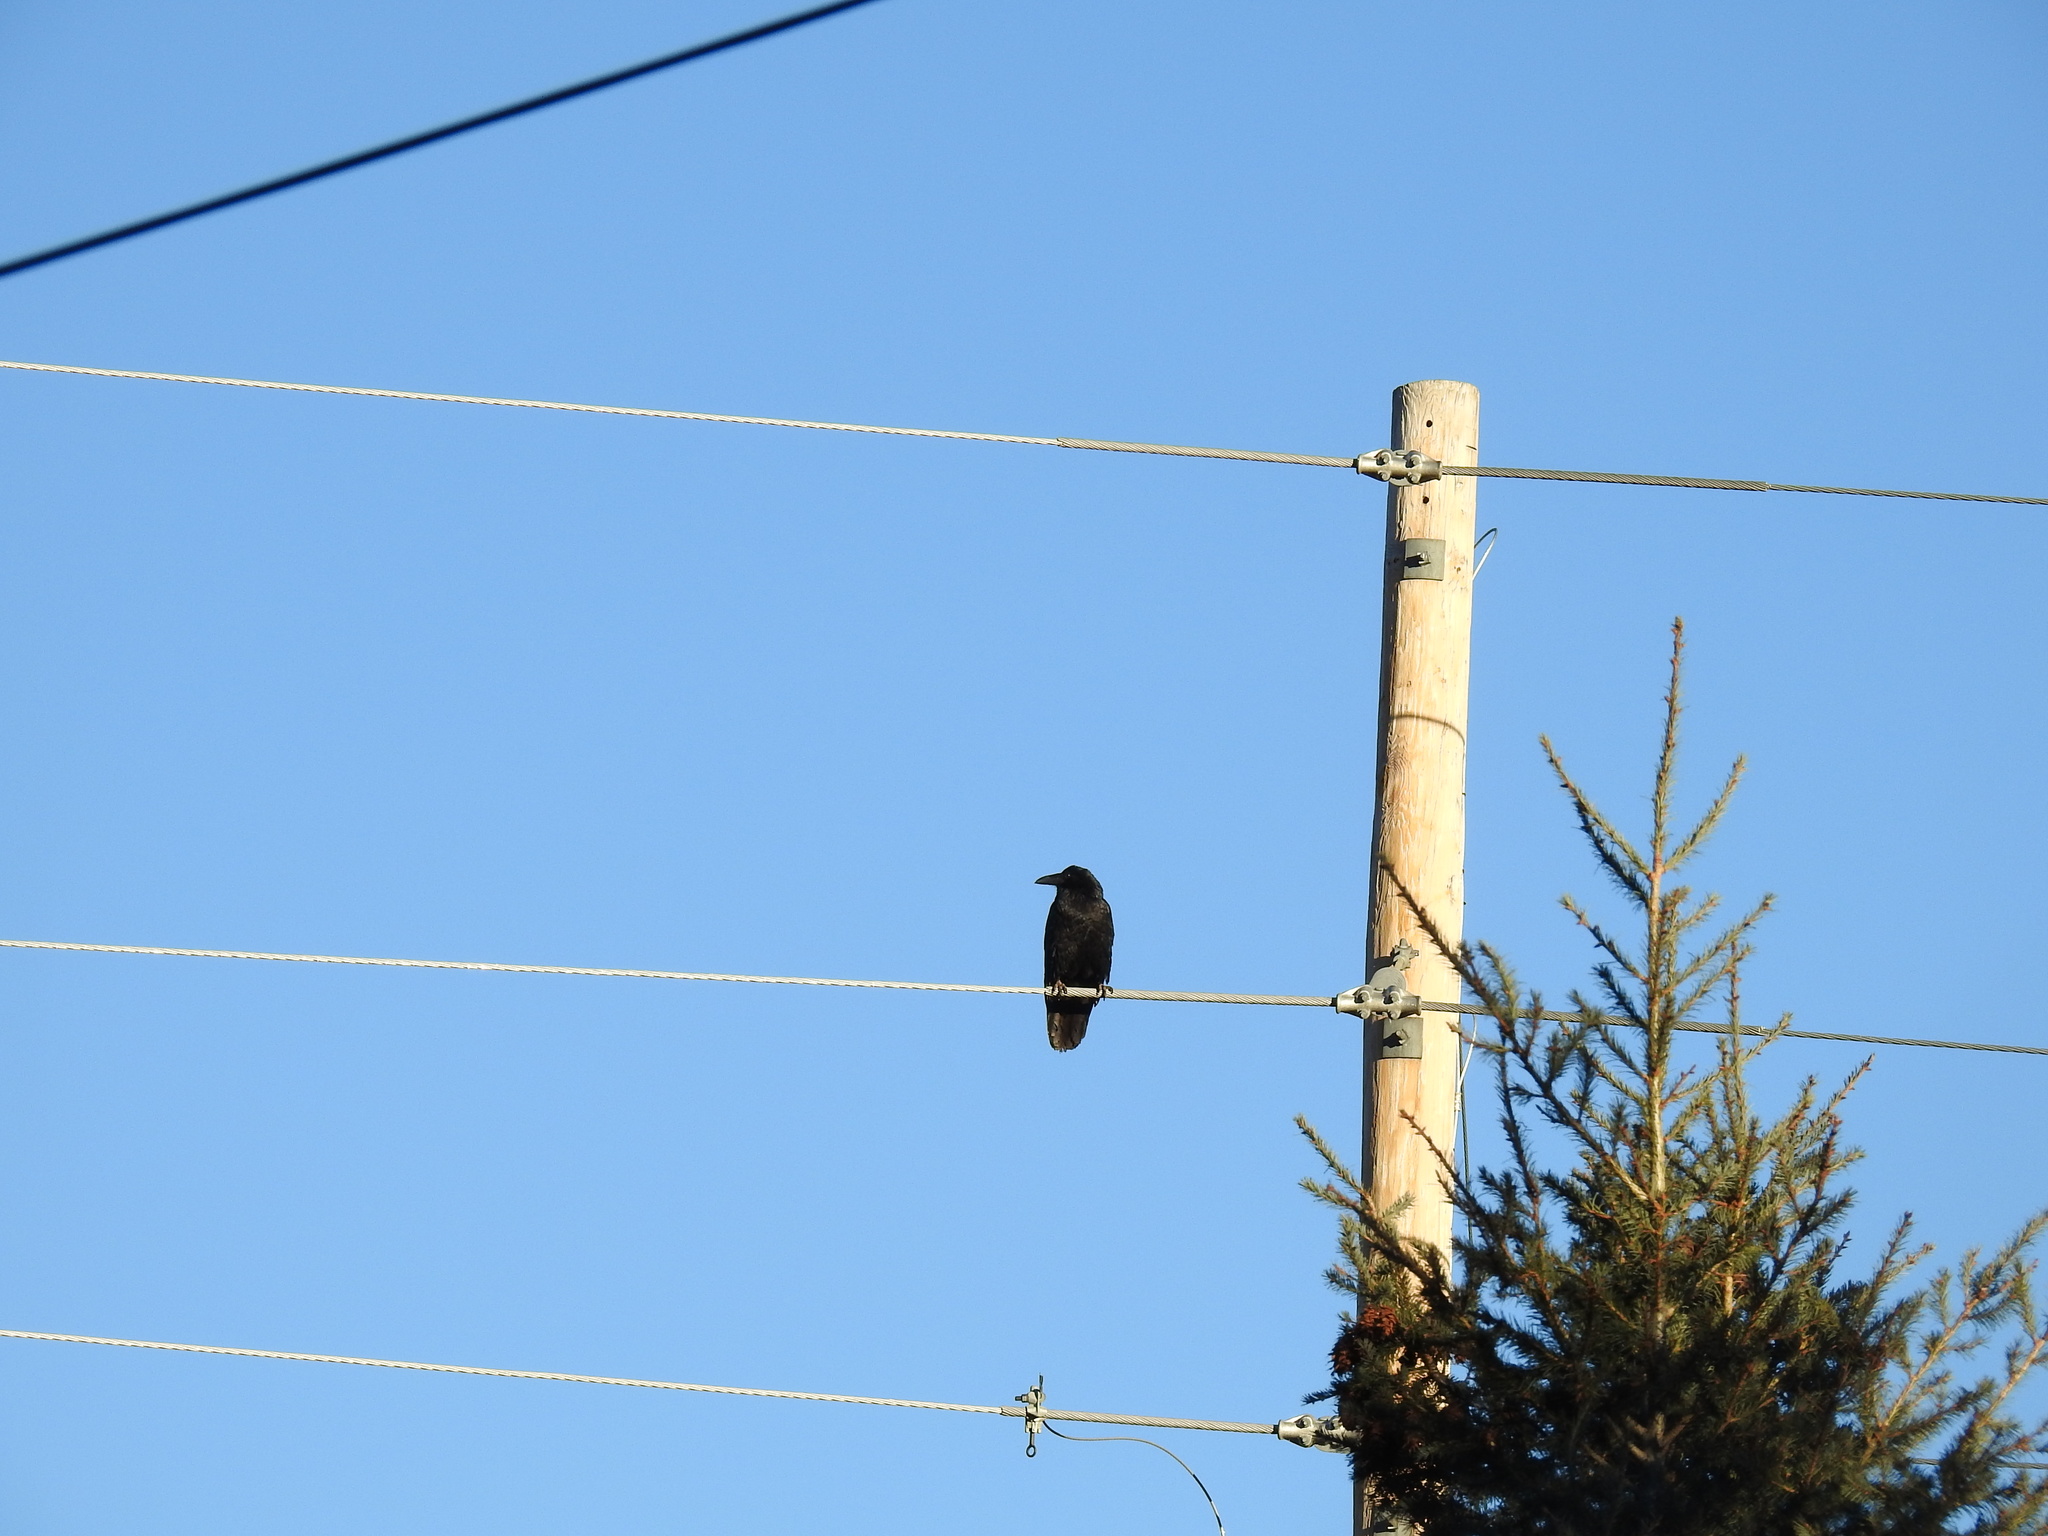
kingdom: Animalia
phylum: Chordata
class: Aves
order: Passeriformes
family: Corvidae
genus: Corvus
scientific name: Corvus corax
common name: Common raven
